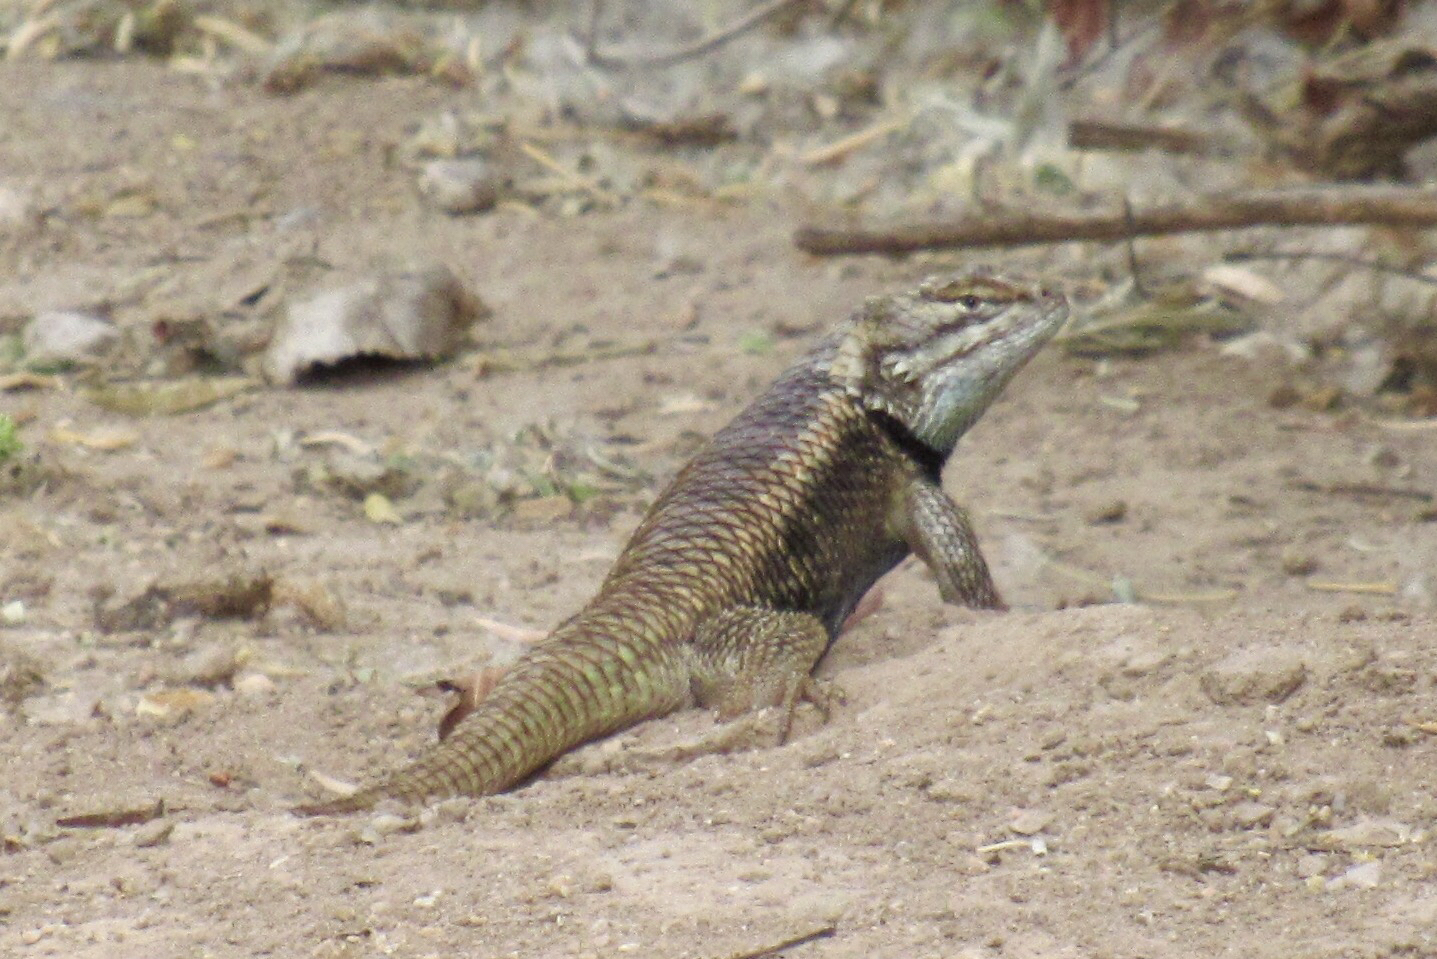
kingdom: Animalia
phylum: Chordata
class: Squamata
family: Phrynosomatidae
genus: Sceloporus
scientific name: Sceloporus magister
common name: Desert spiny lizard
